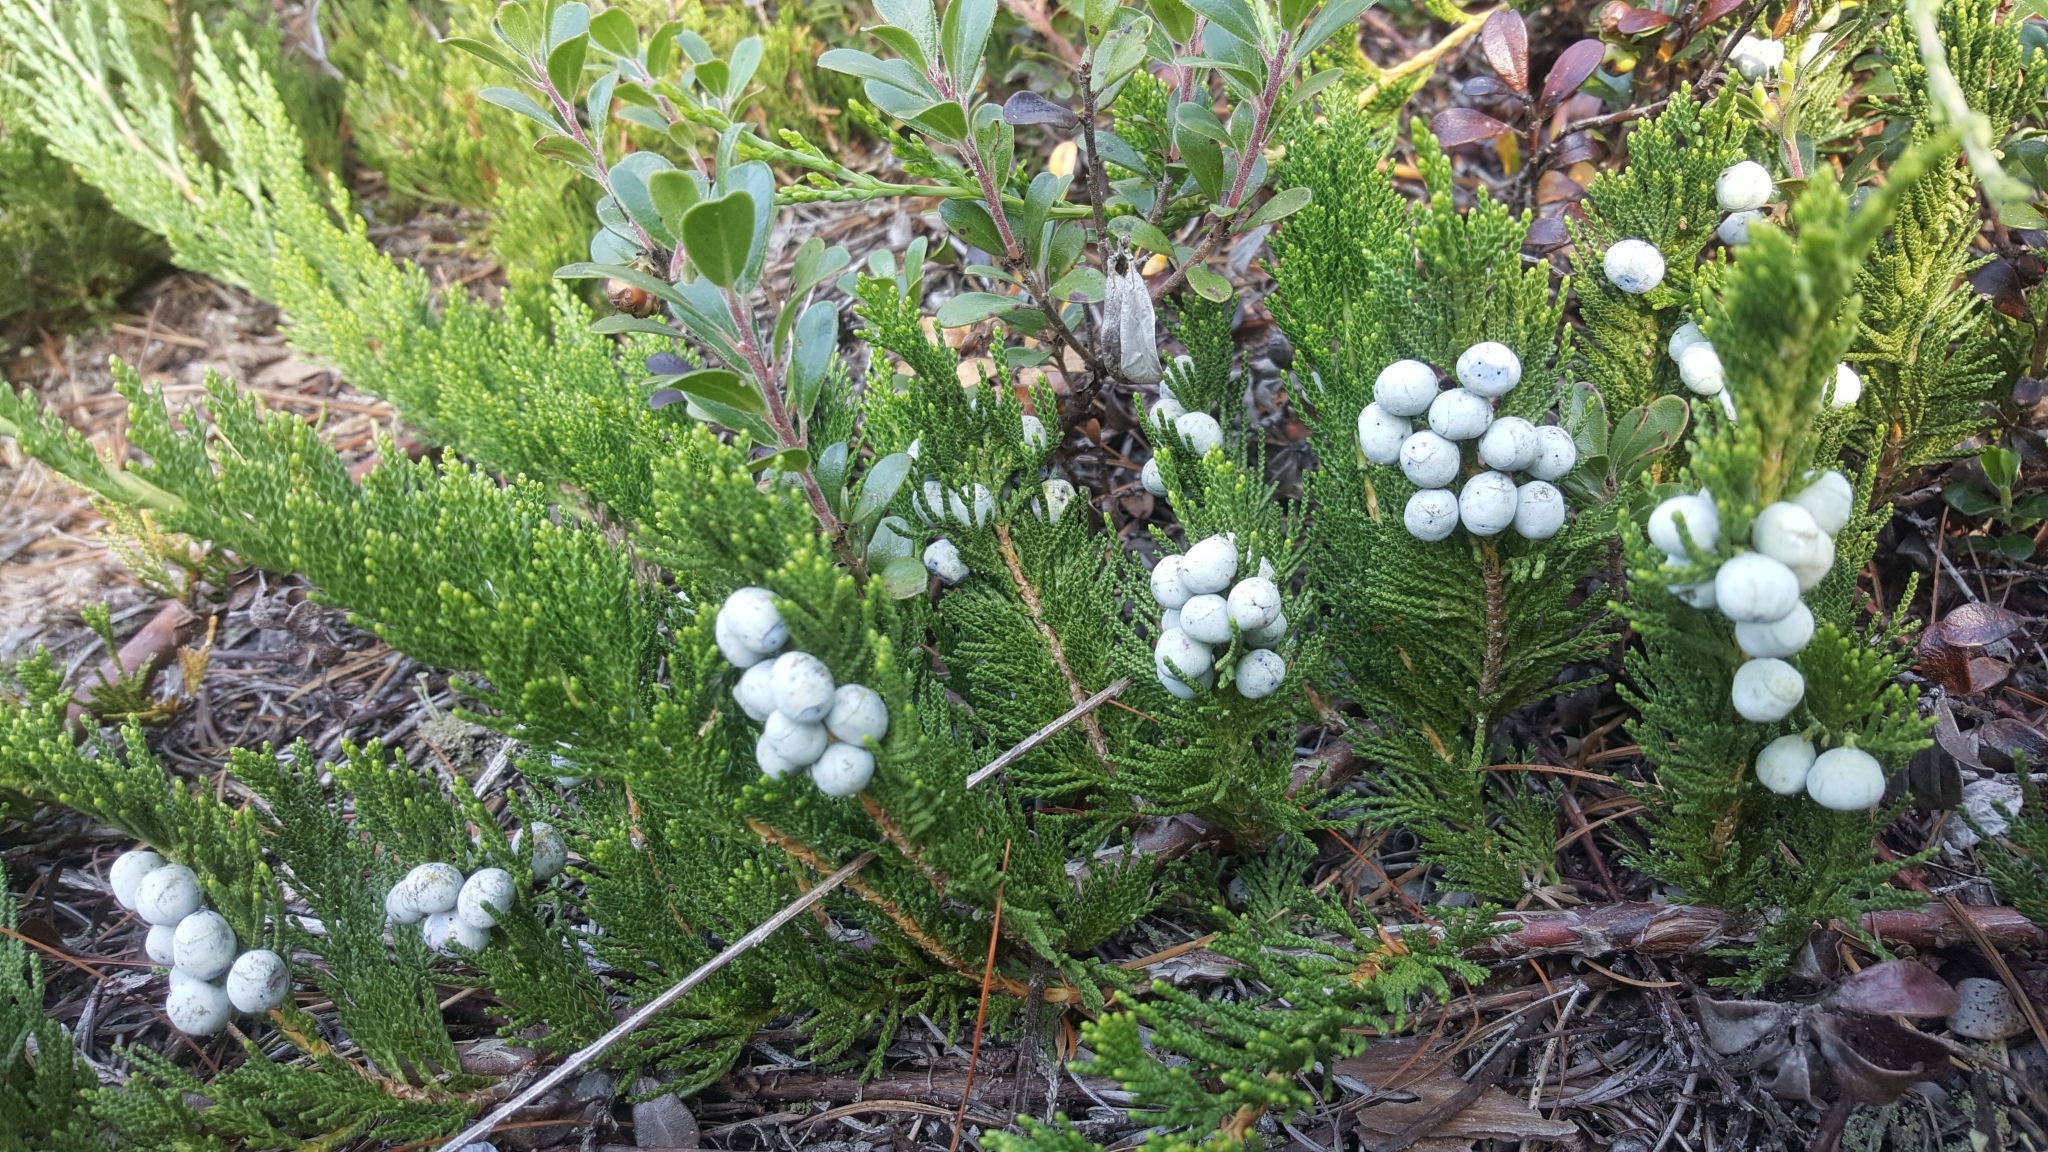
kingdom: Plantae
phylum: Tracheophyta
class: Pinopsida
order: Pinales
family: Cupressaceae
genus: Juniperus
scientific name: Juniperus horizontalis
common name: Creeping juniper
